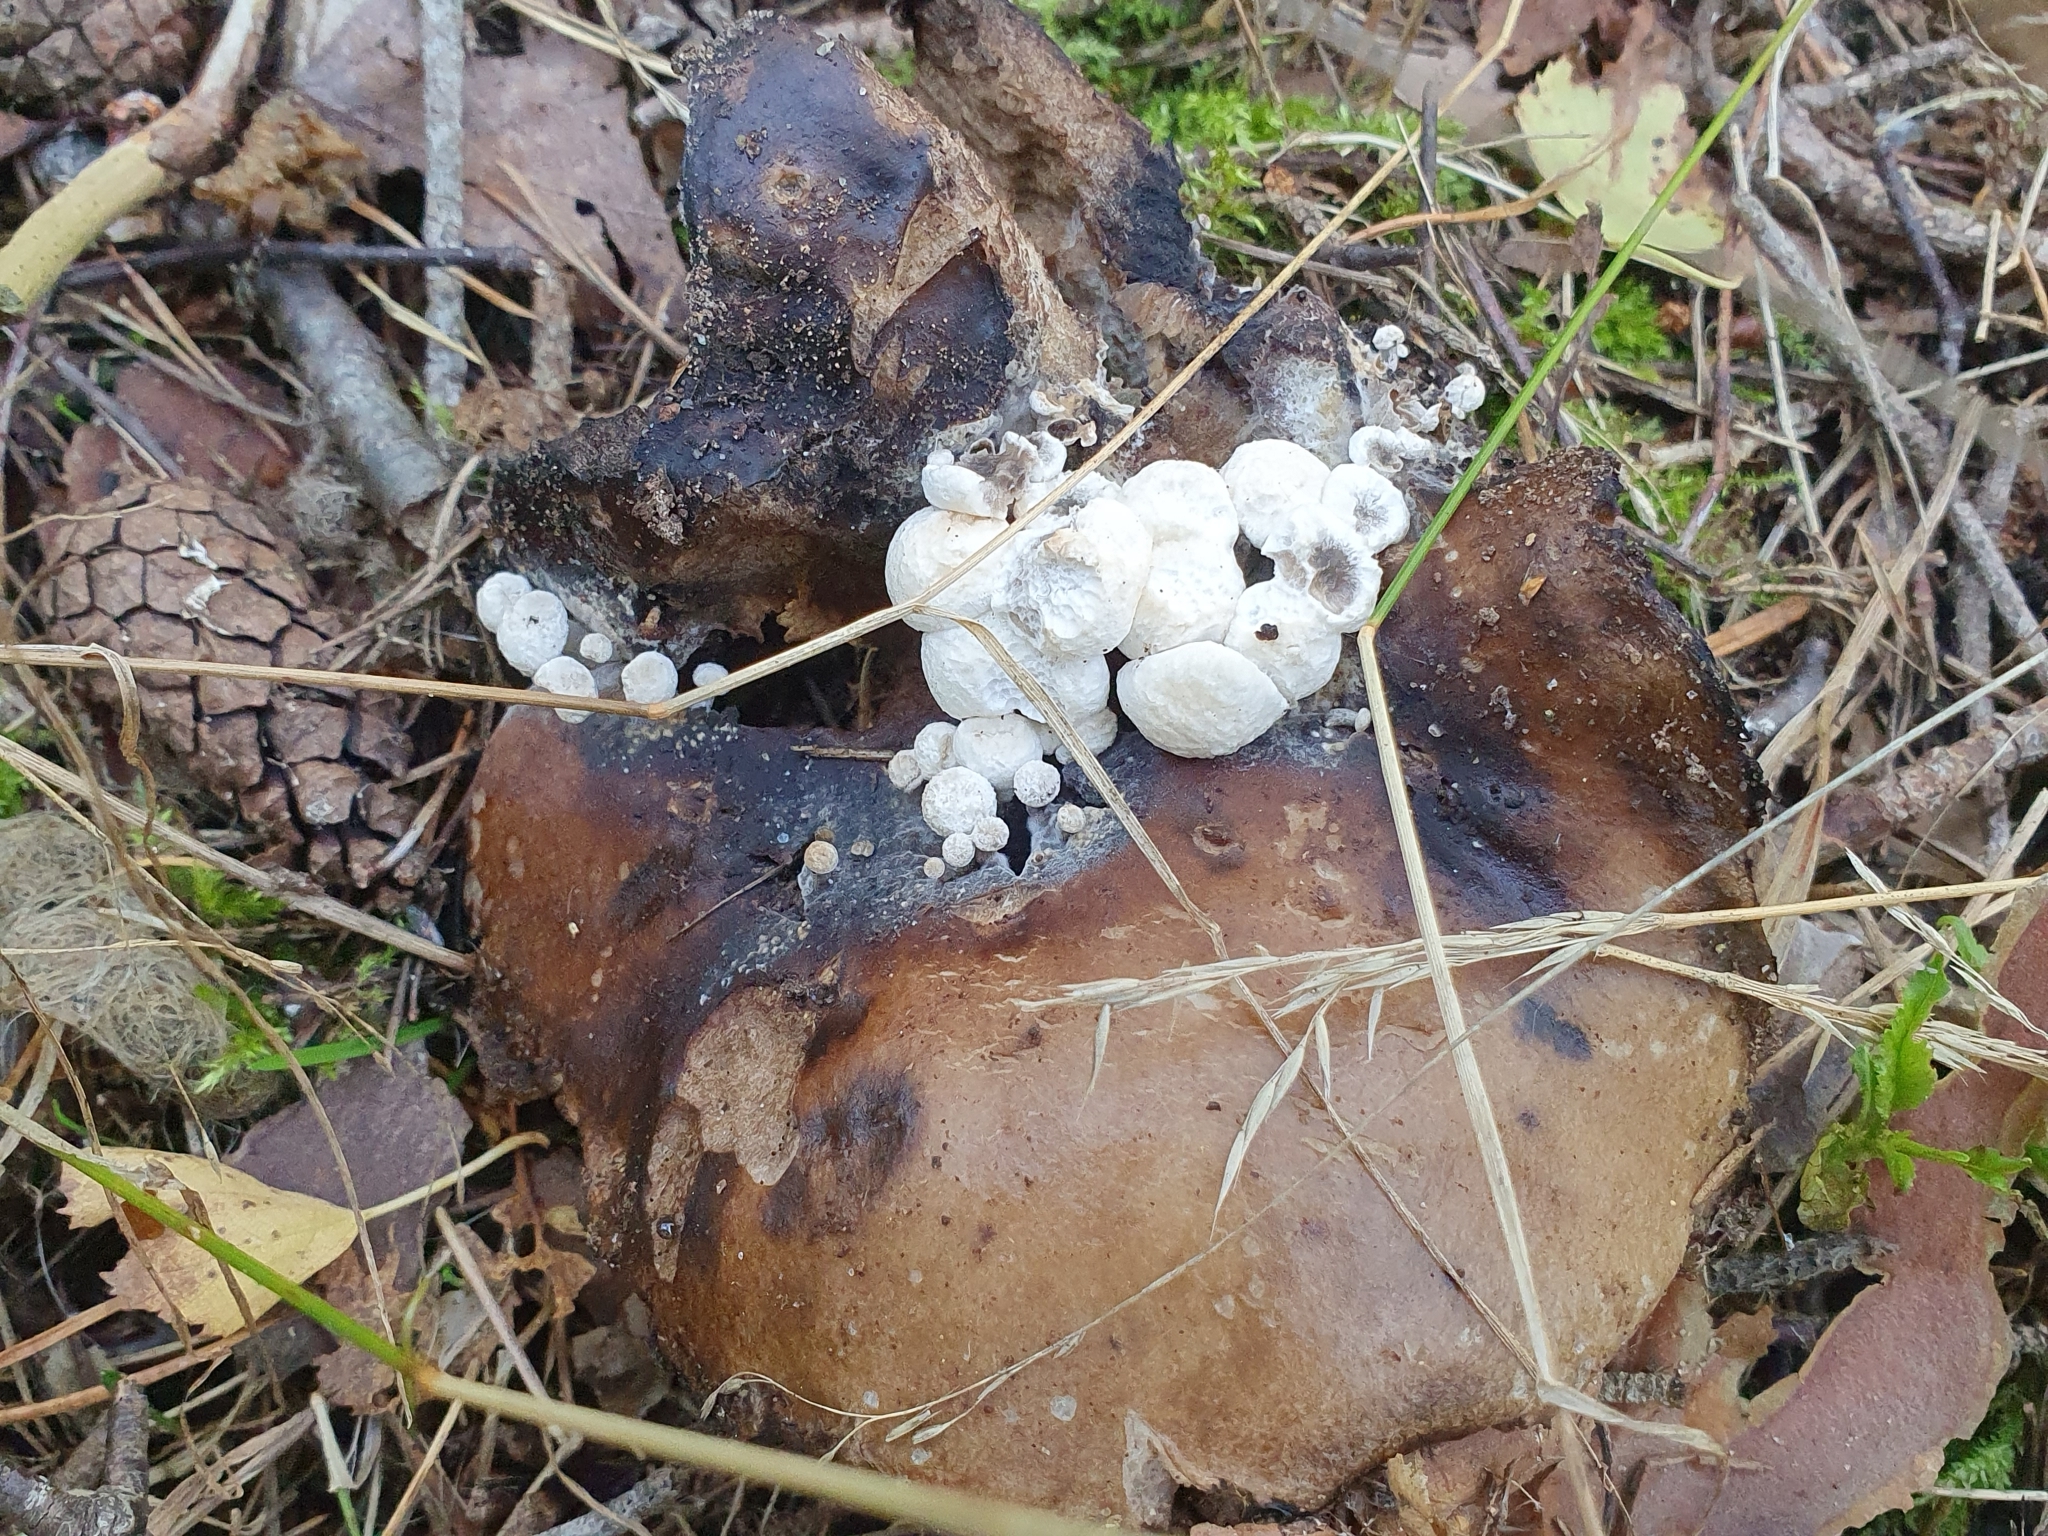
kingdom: Fungi
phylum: Basidiomycota
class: Agaricomycetes
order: Agaricales
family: Lyophyllaceae
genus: Asterophora
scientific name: Asterophora lycoperdoides
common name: Pick-a-back toadstool
